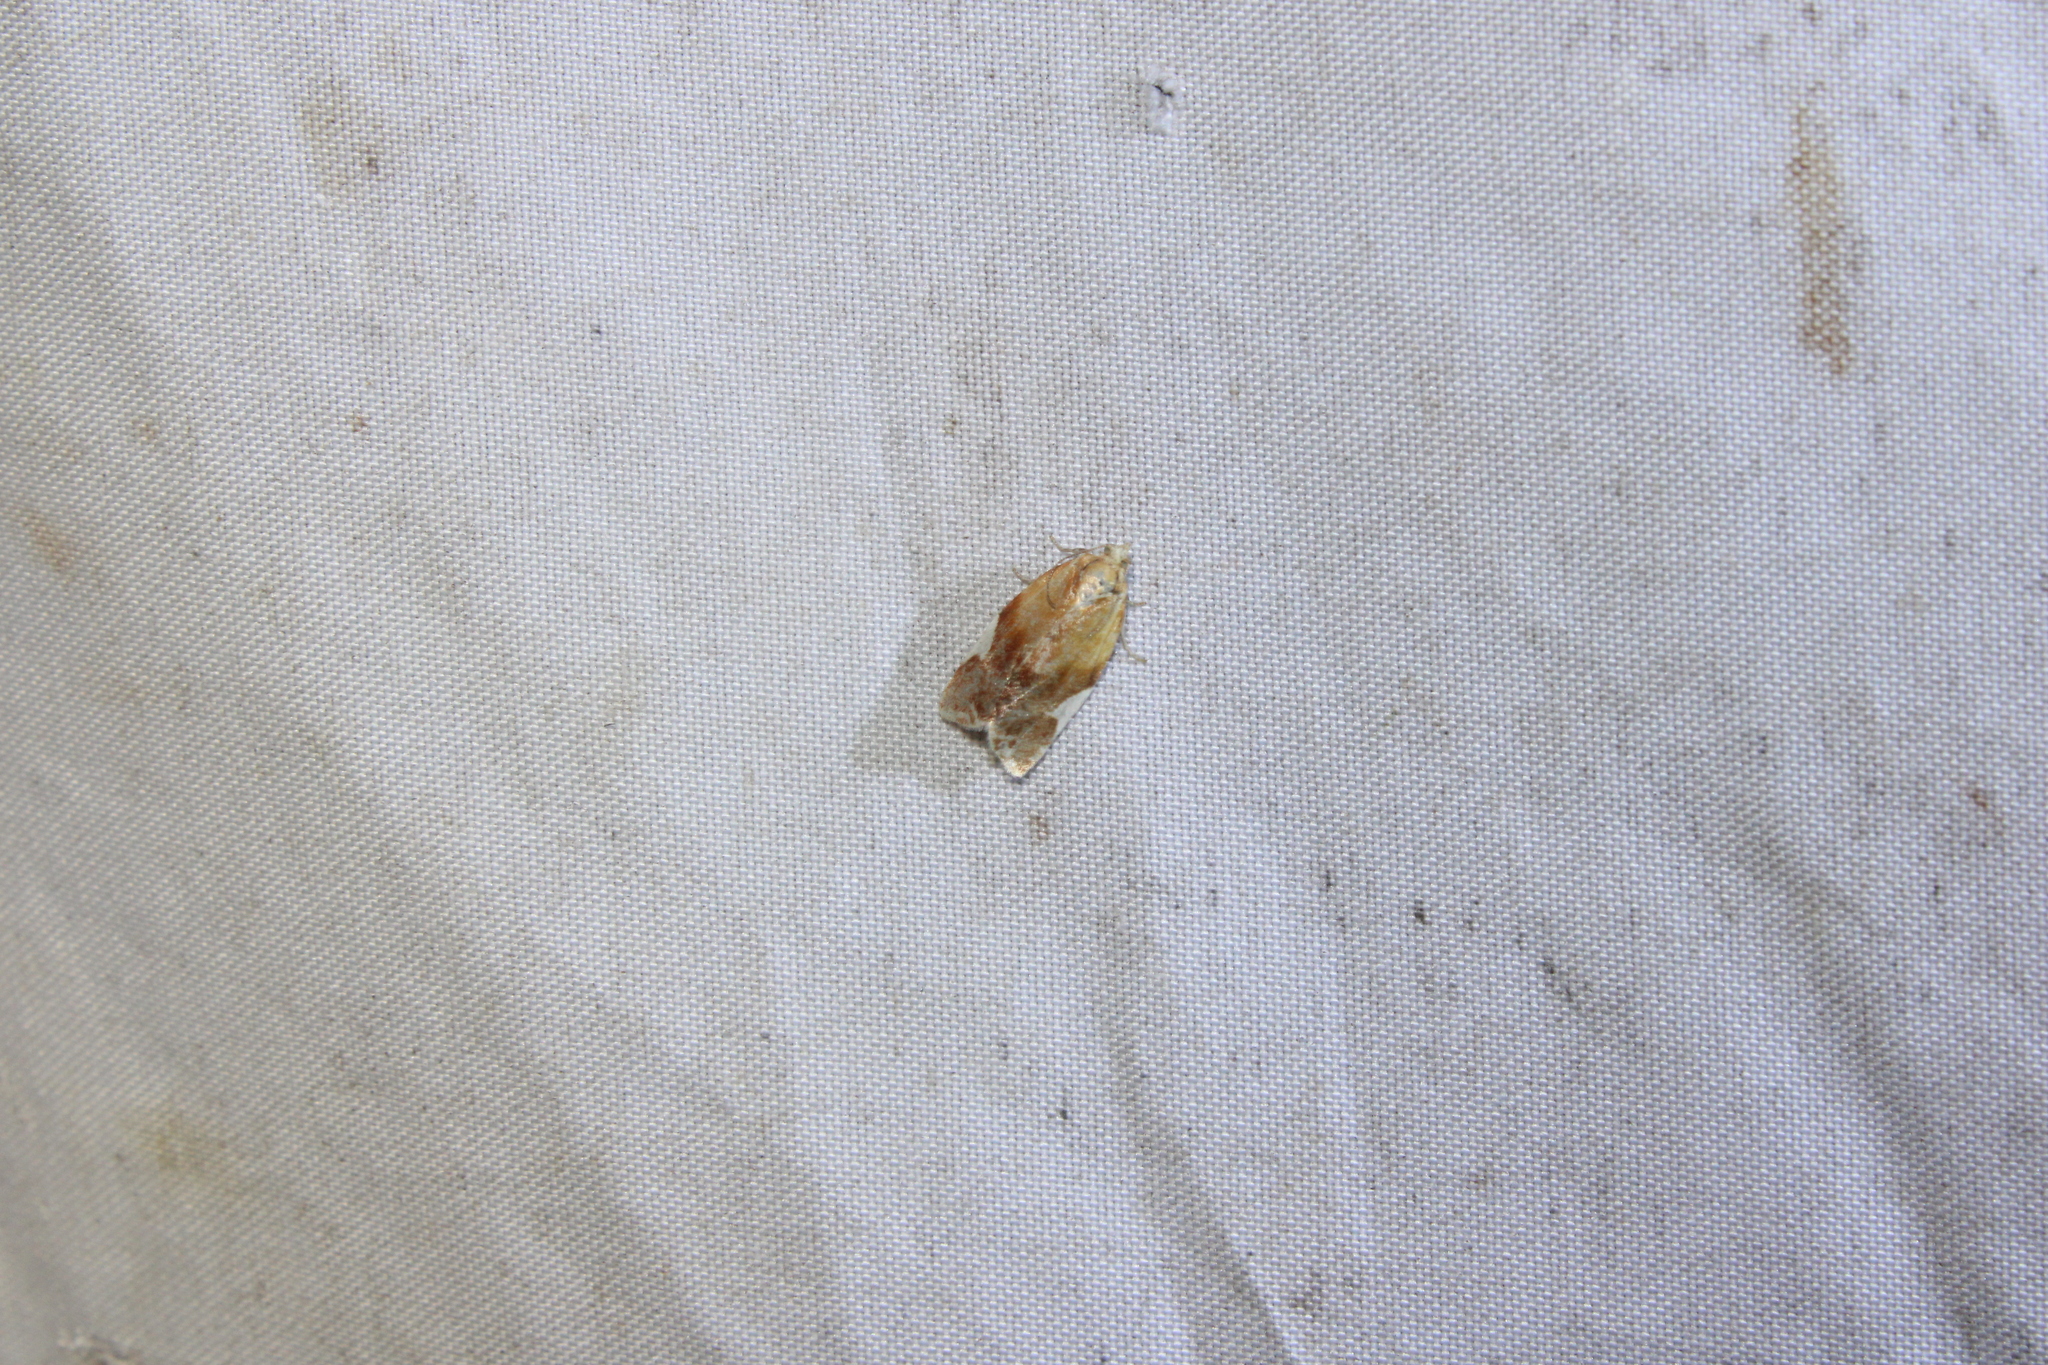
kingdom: Animalia
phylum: Arthropoda
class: Insecta
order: Lepidoptera
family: Tortricidae
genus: Clepsis
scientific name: Clepsis persicana
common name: White triangle tortrix
